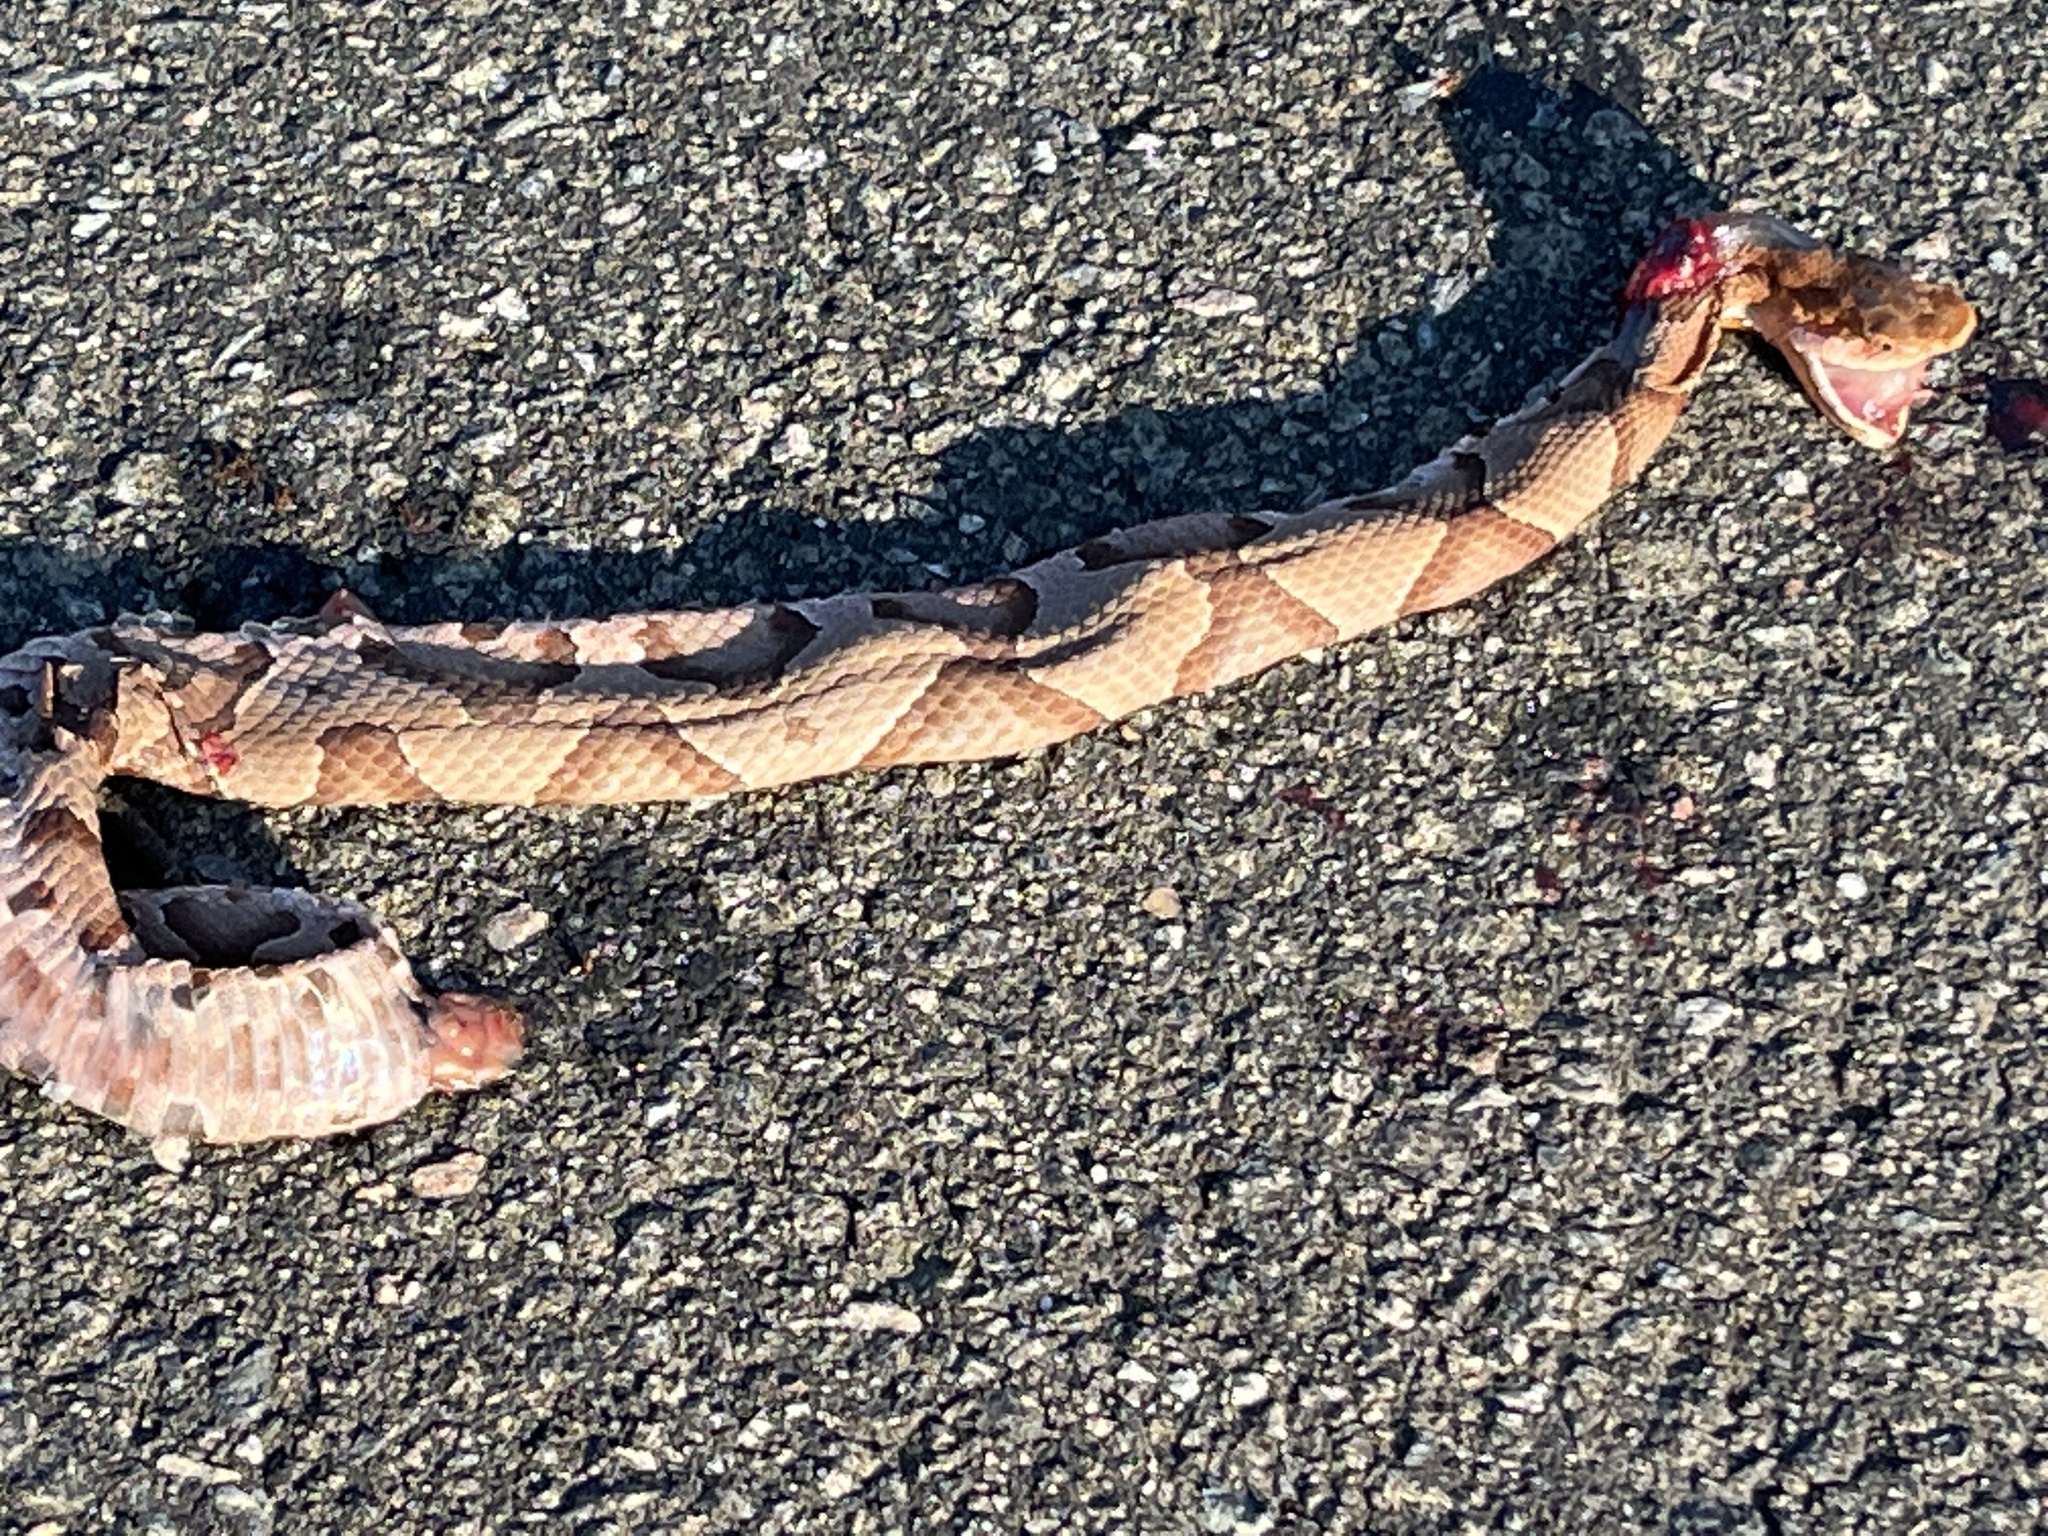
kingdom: Animalia
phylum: Chordata
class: Squamata
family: Viperidae
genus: Agkistrodon
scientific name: Agkistrodon contortrix
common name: Northern copperhead
